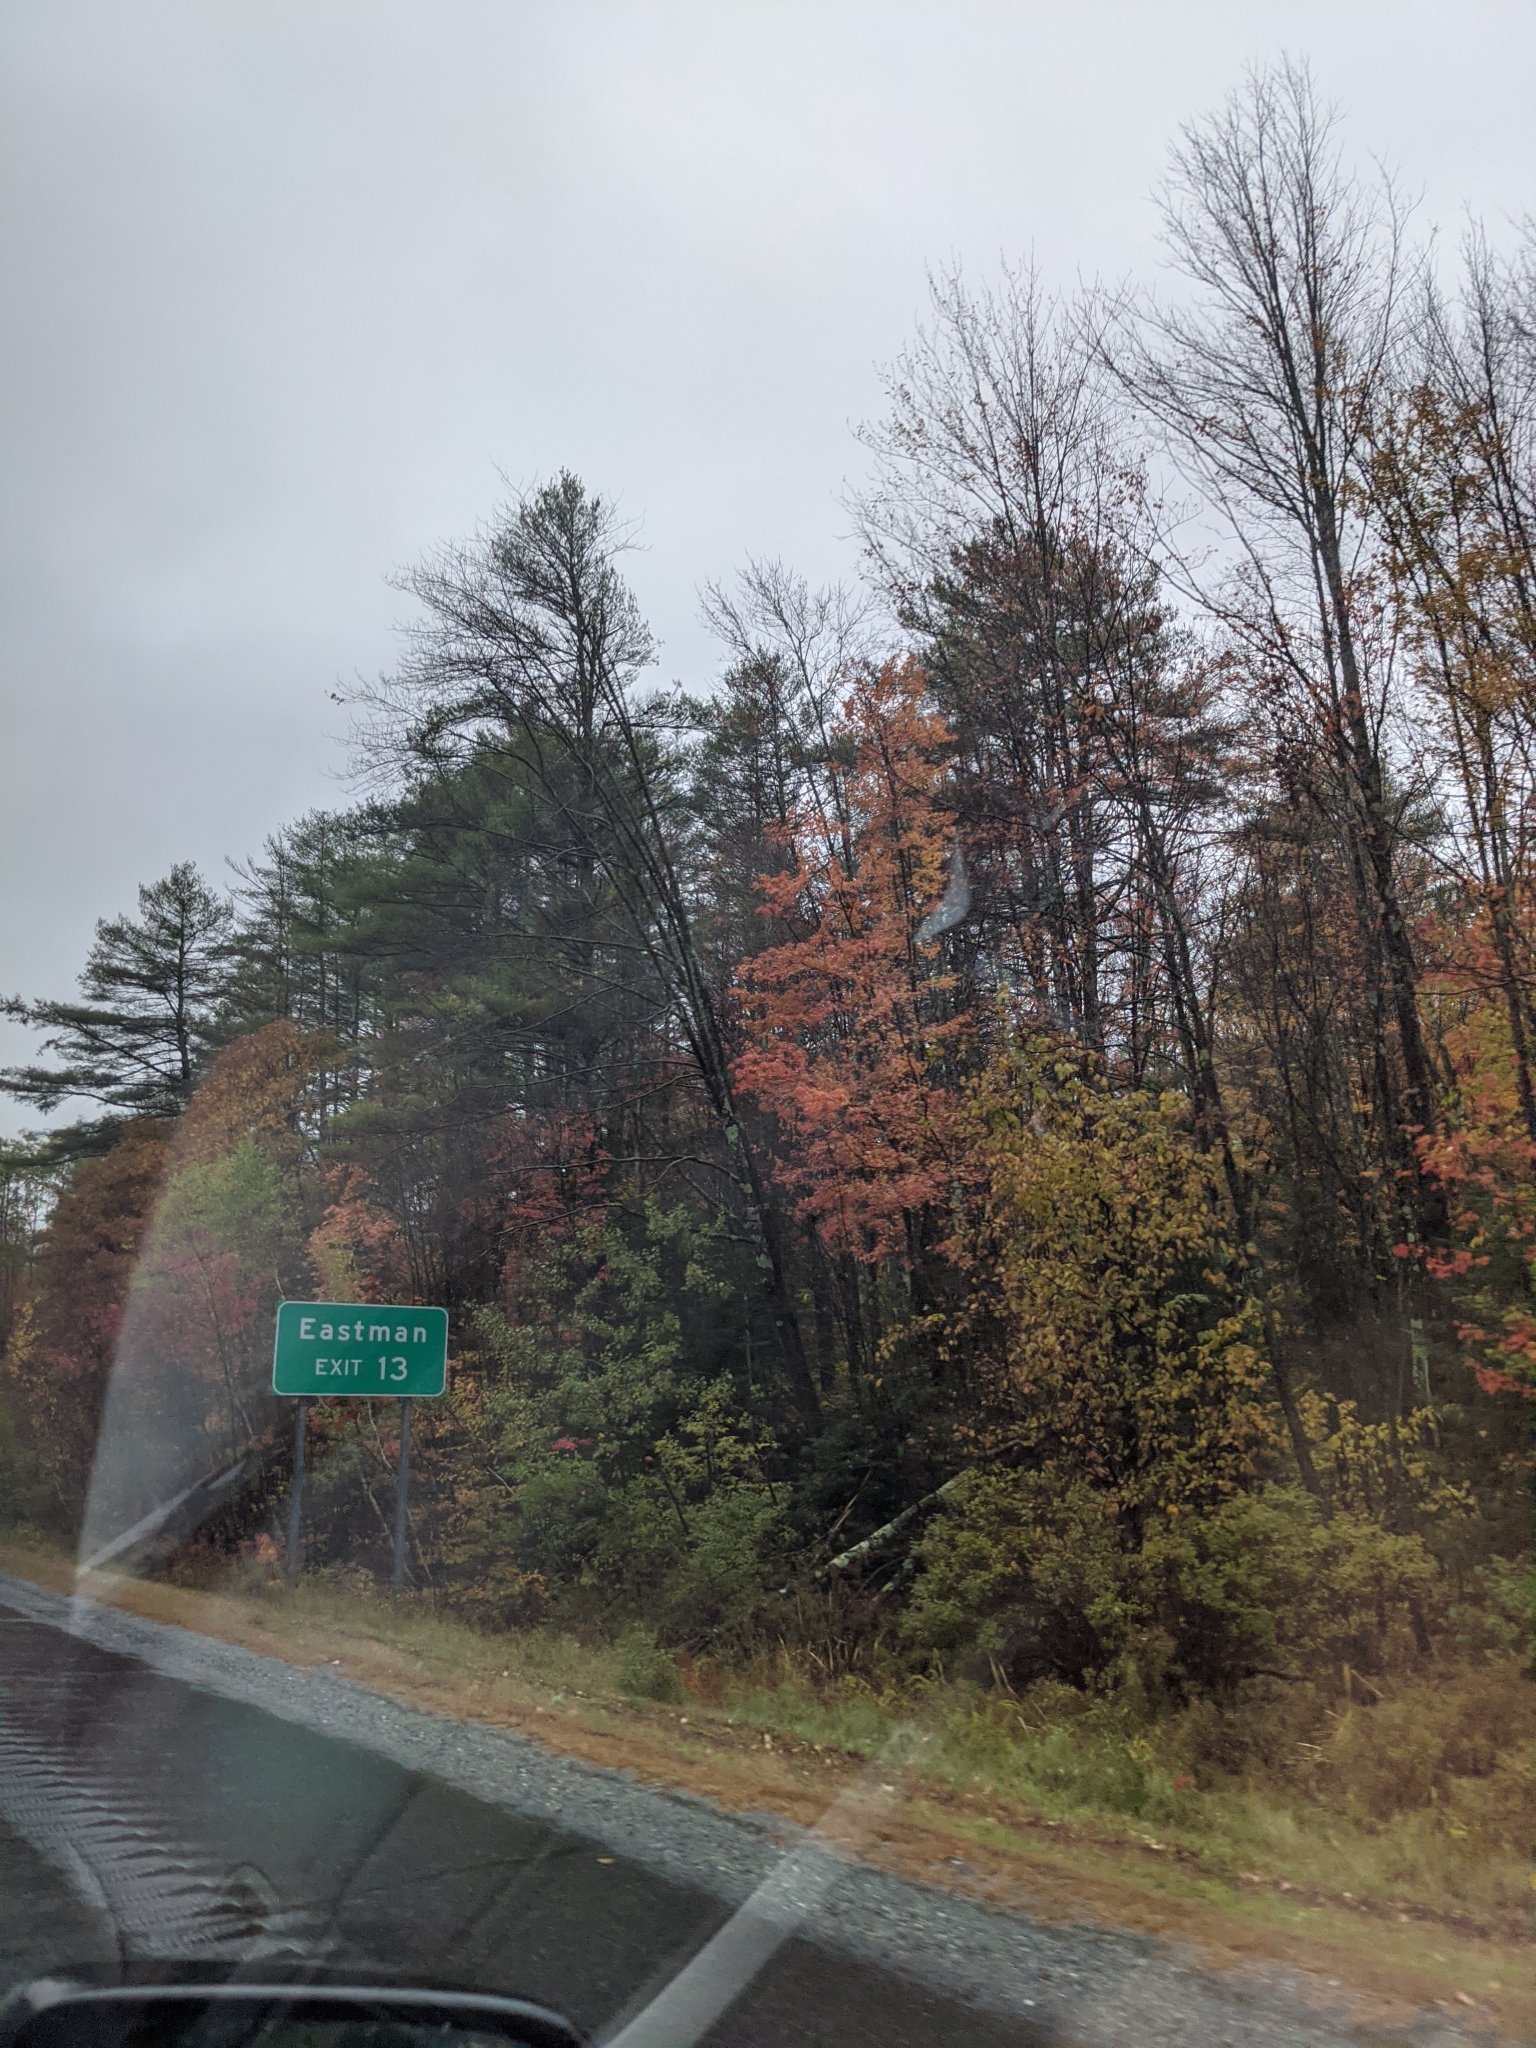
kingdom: Plantae
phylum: Tracheophyta
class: Pinopsida
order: Pinales
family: Pinaceae
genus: Pinus
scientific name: Pinus strobus
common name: Weymouth pine
